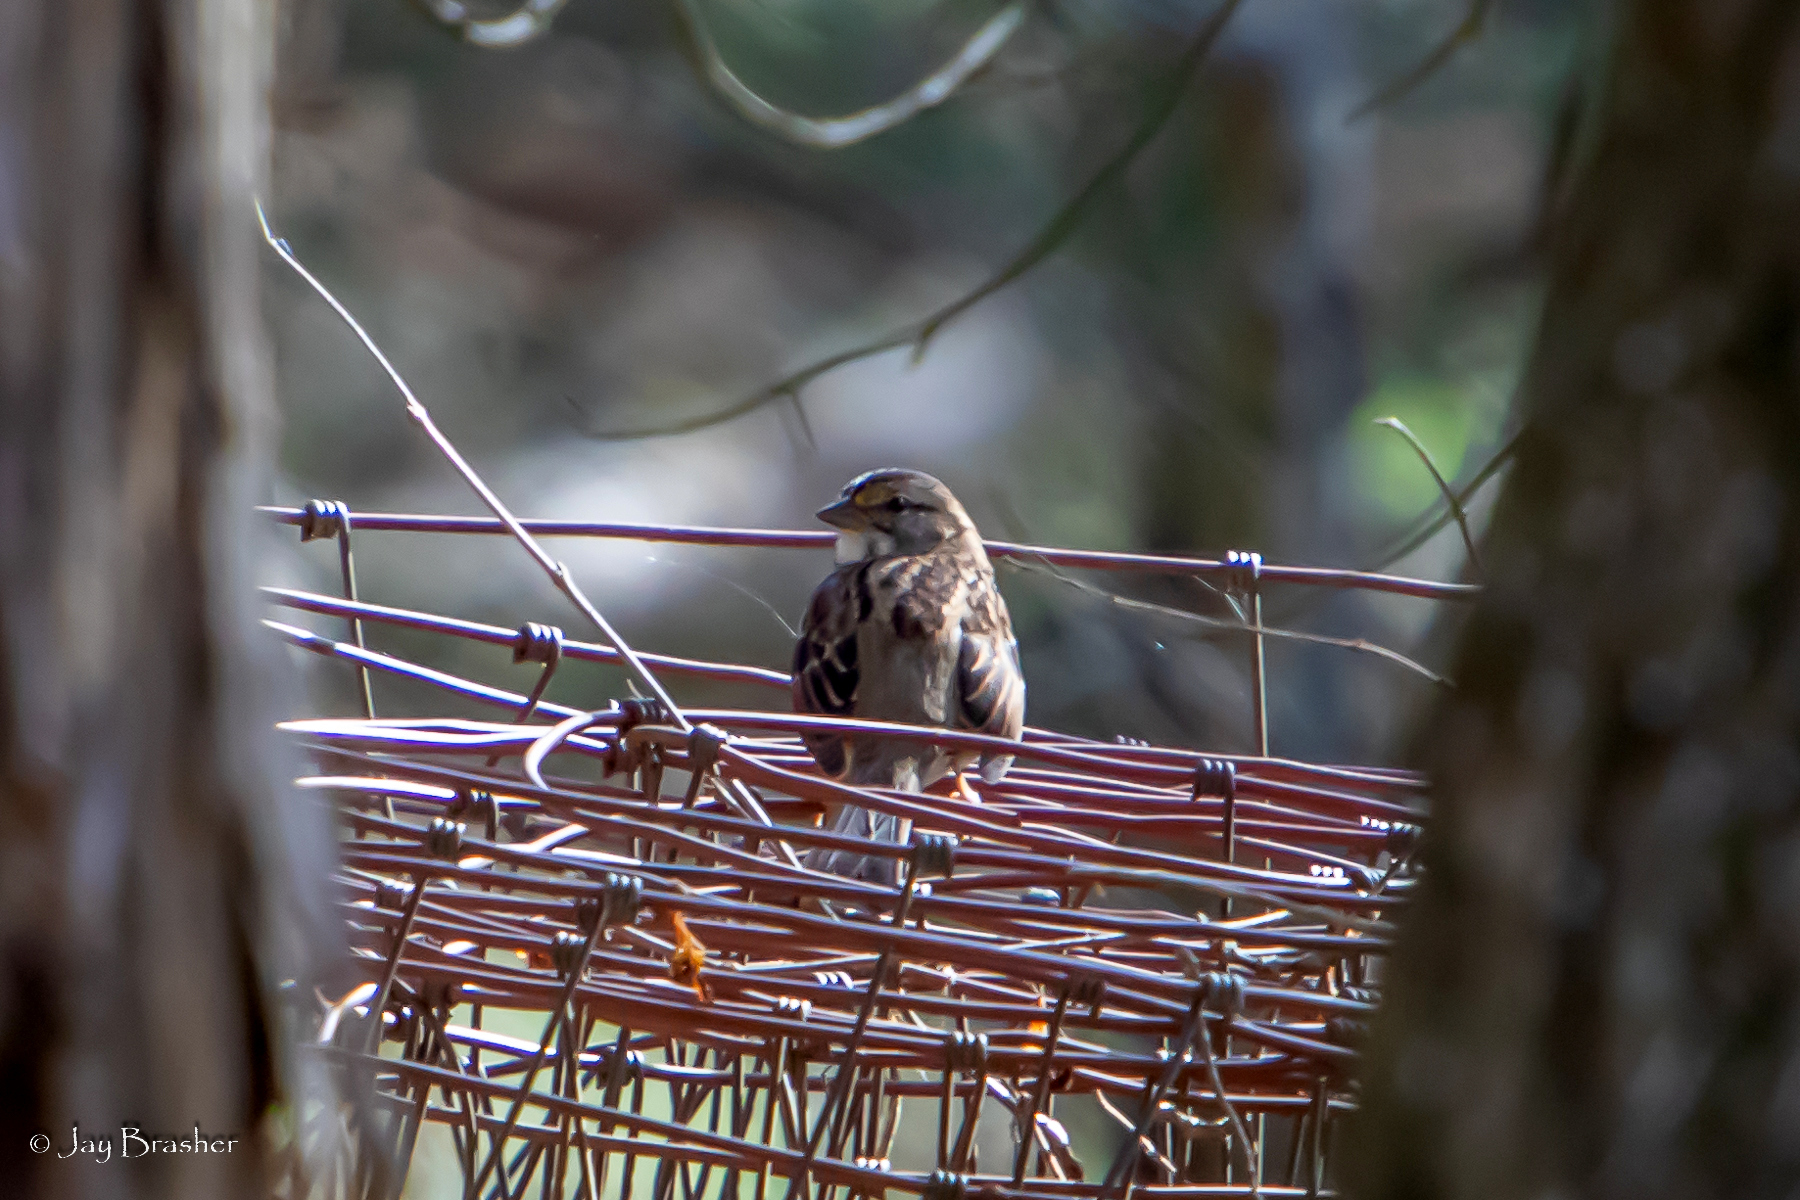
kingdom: Animalia
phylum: Chordata
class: Aves
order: Passeriformes
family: Passerellidae
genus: Zonotrichia
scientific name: Zonotrichia albicollis
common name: White-throated sparrow
